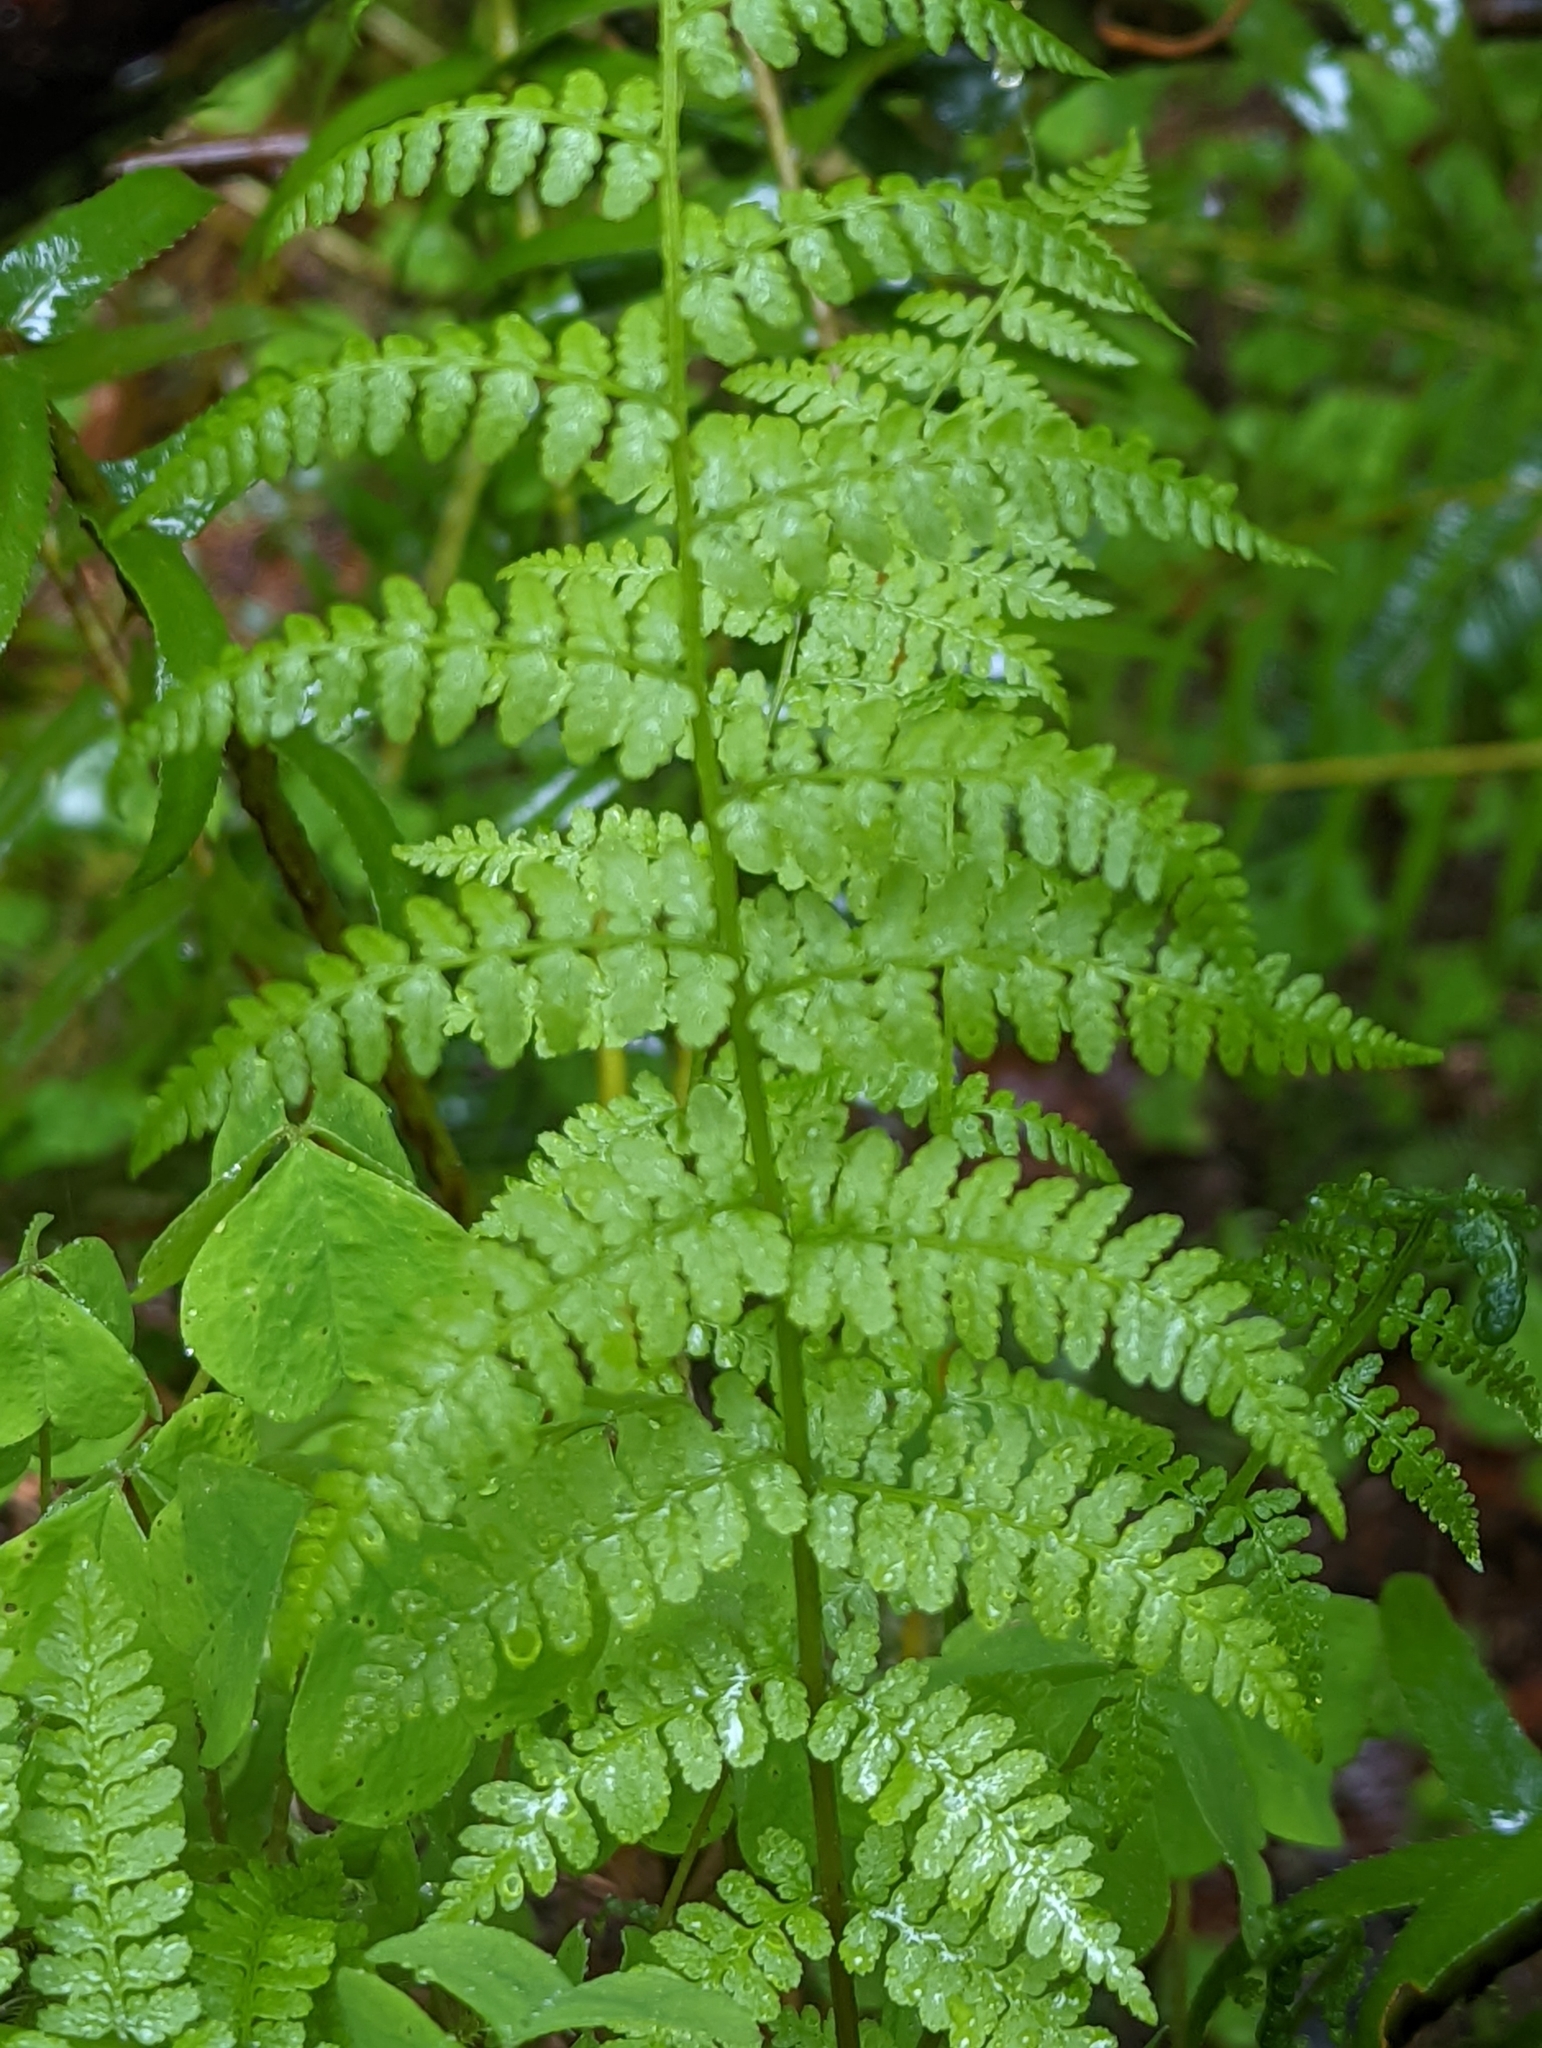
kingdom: Plantae
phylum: Tracheophyta
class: Polypodiopsida
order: Polypodiales
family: Athyriaceae
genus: Athyrium
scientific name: Athyrium filix-femina
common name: Lady fern
